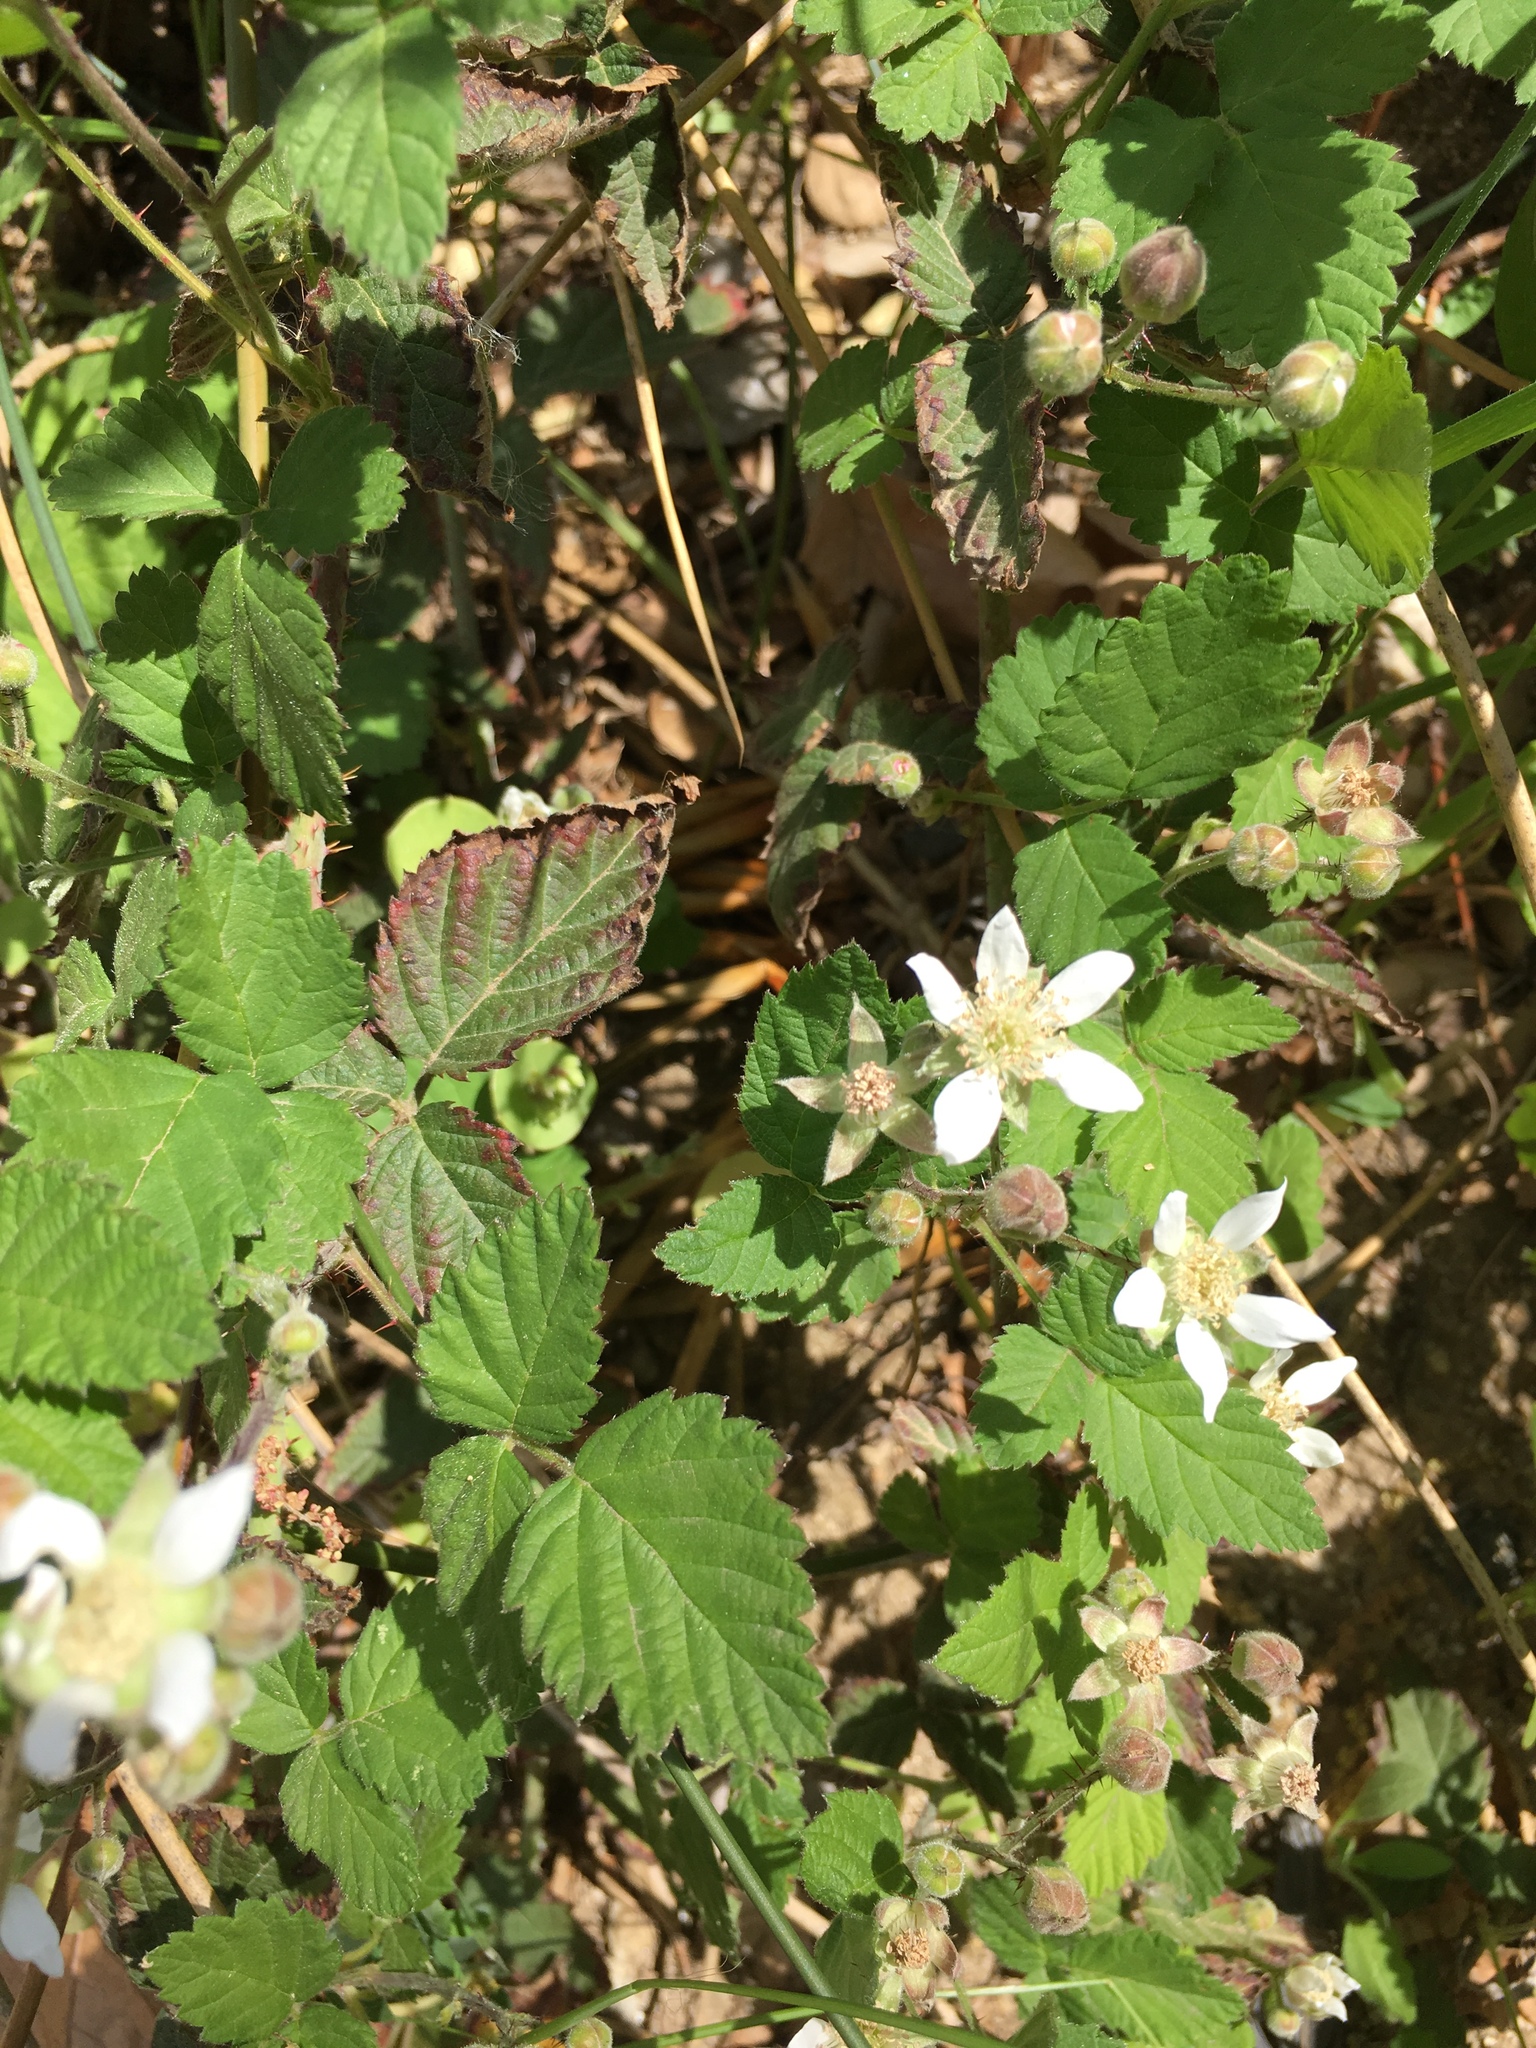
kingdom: Plantae
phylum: Tracheophyta
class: Magnoliopsida
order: Rosales
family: Rosaceae
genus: Rubus
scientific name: Rubus ursinus
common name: Pacific blackberry
